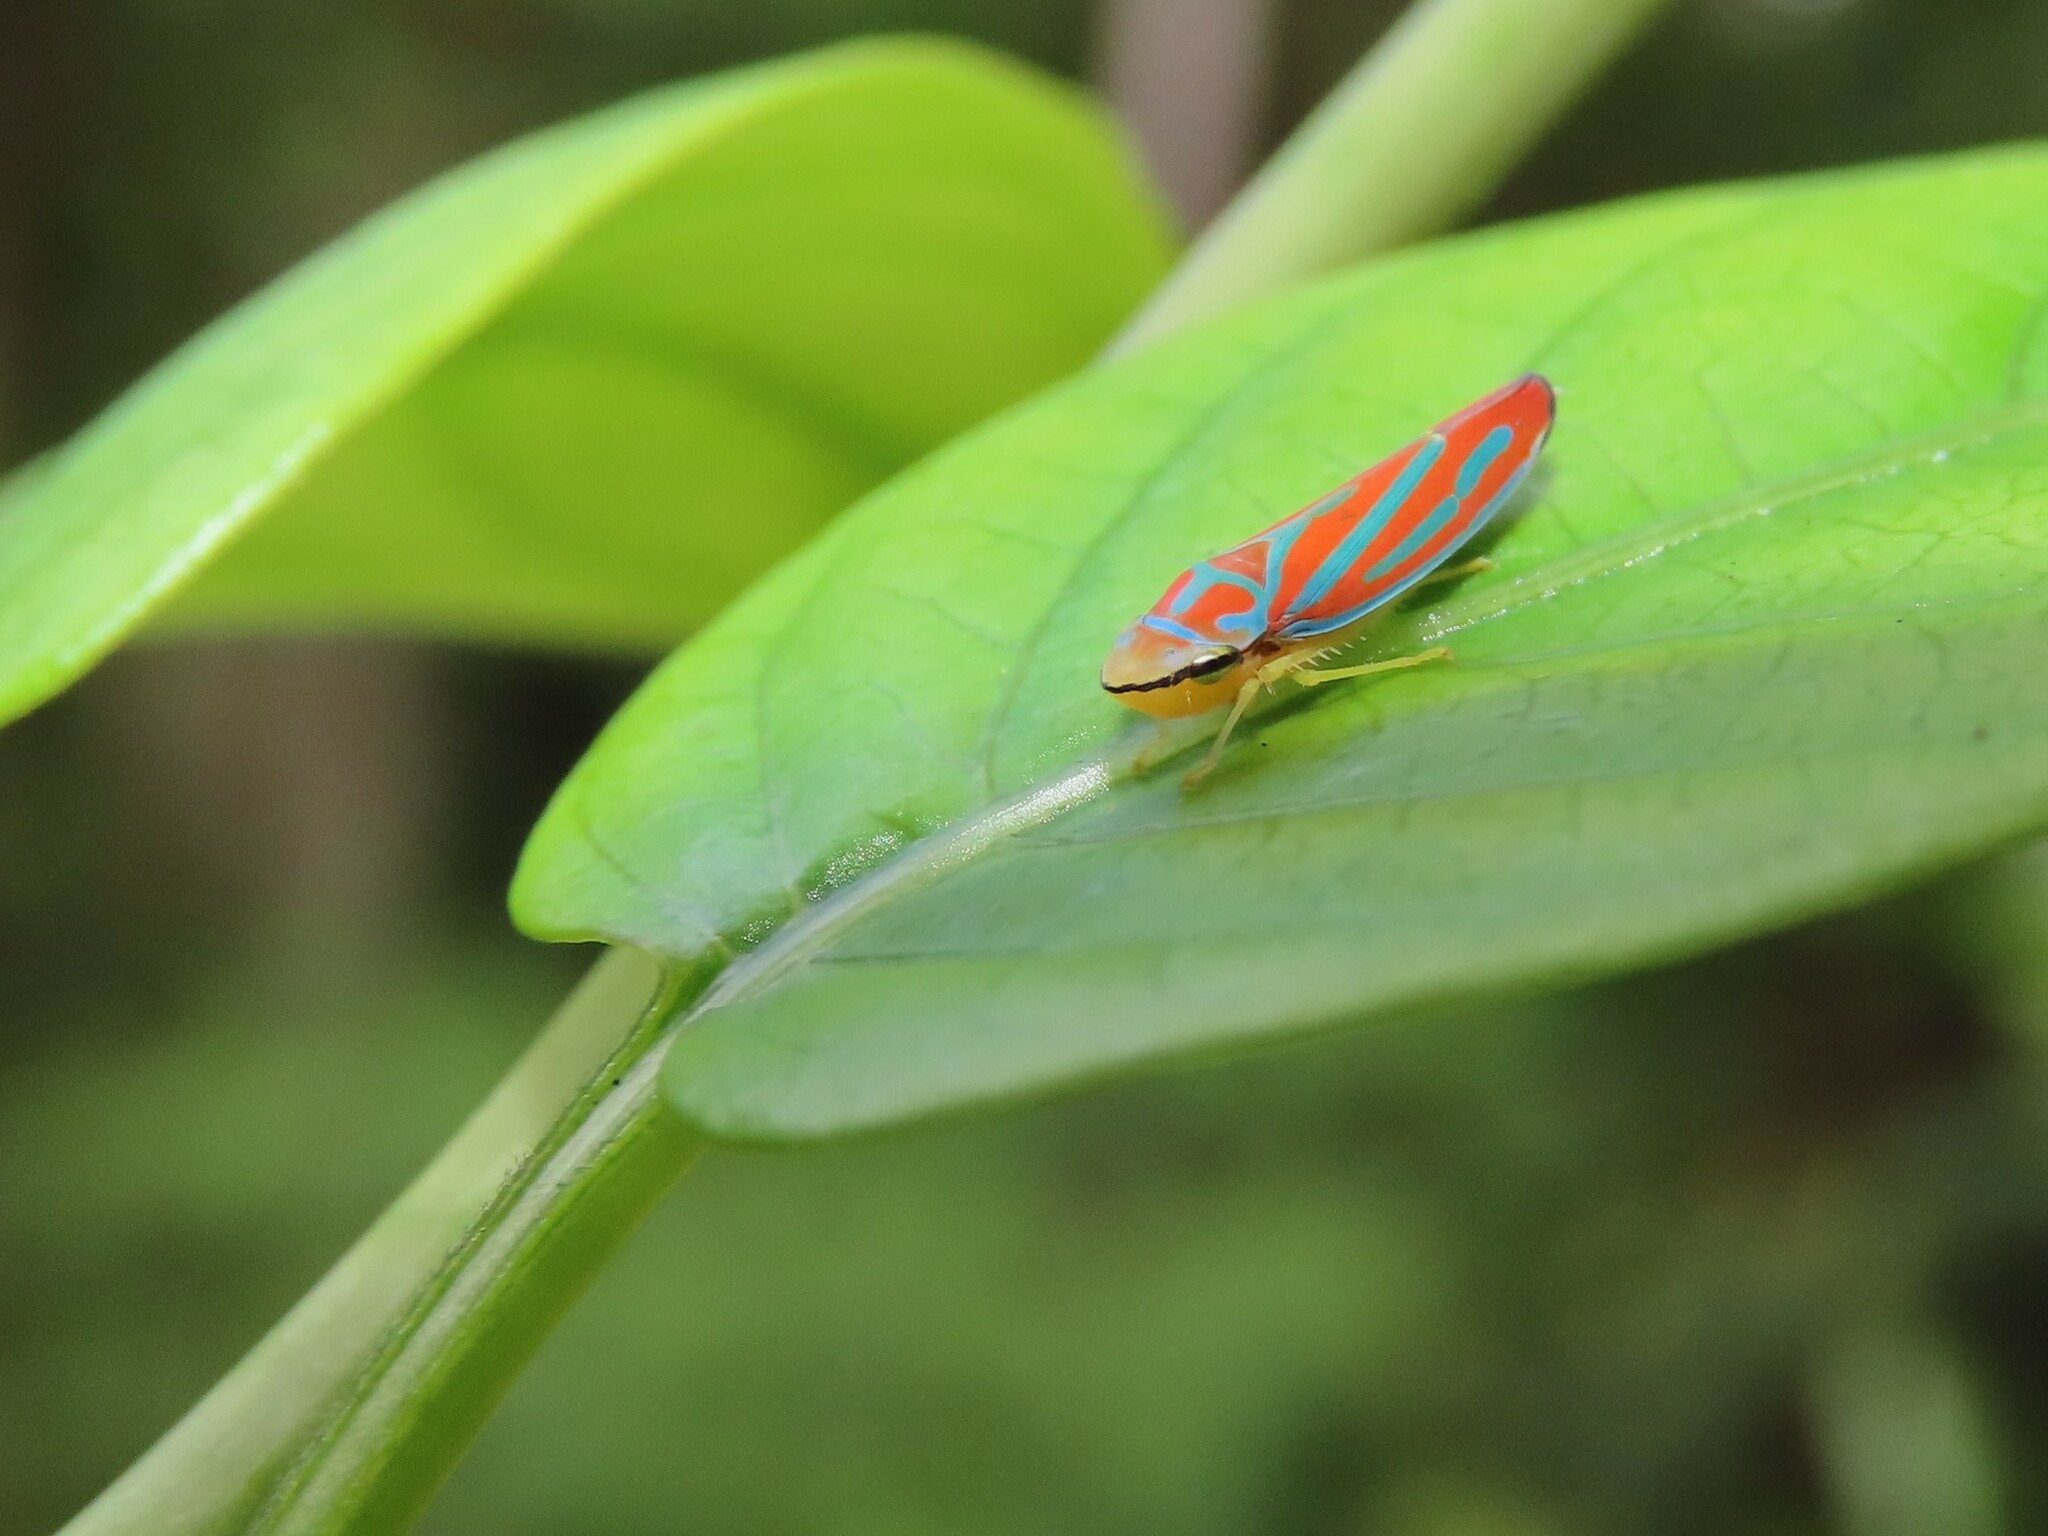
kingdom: Animalia
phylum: Arthropoda
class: Insecta
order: Hemiptera
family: Cicadellidae
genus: Graphocephala
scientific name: Graphocephala coccinea
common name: Candy-striped leafhopper
